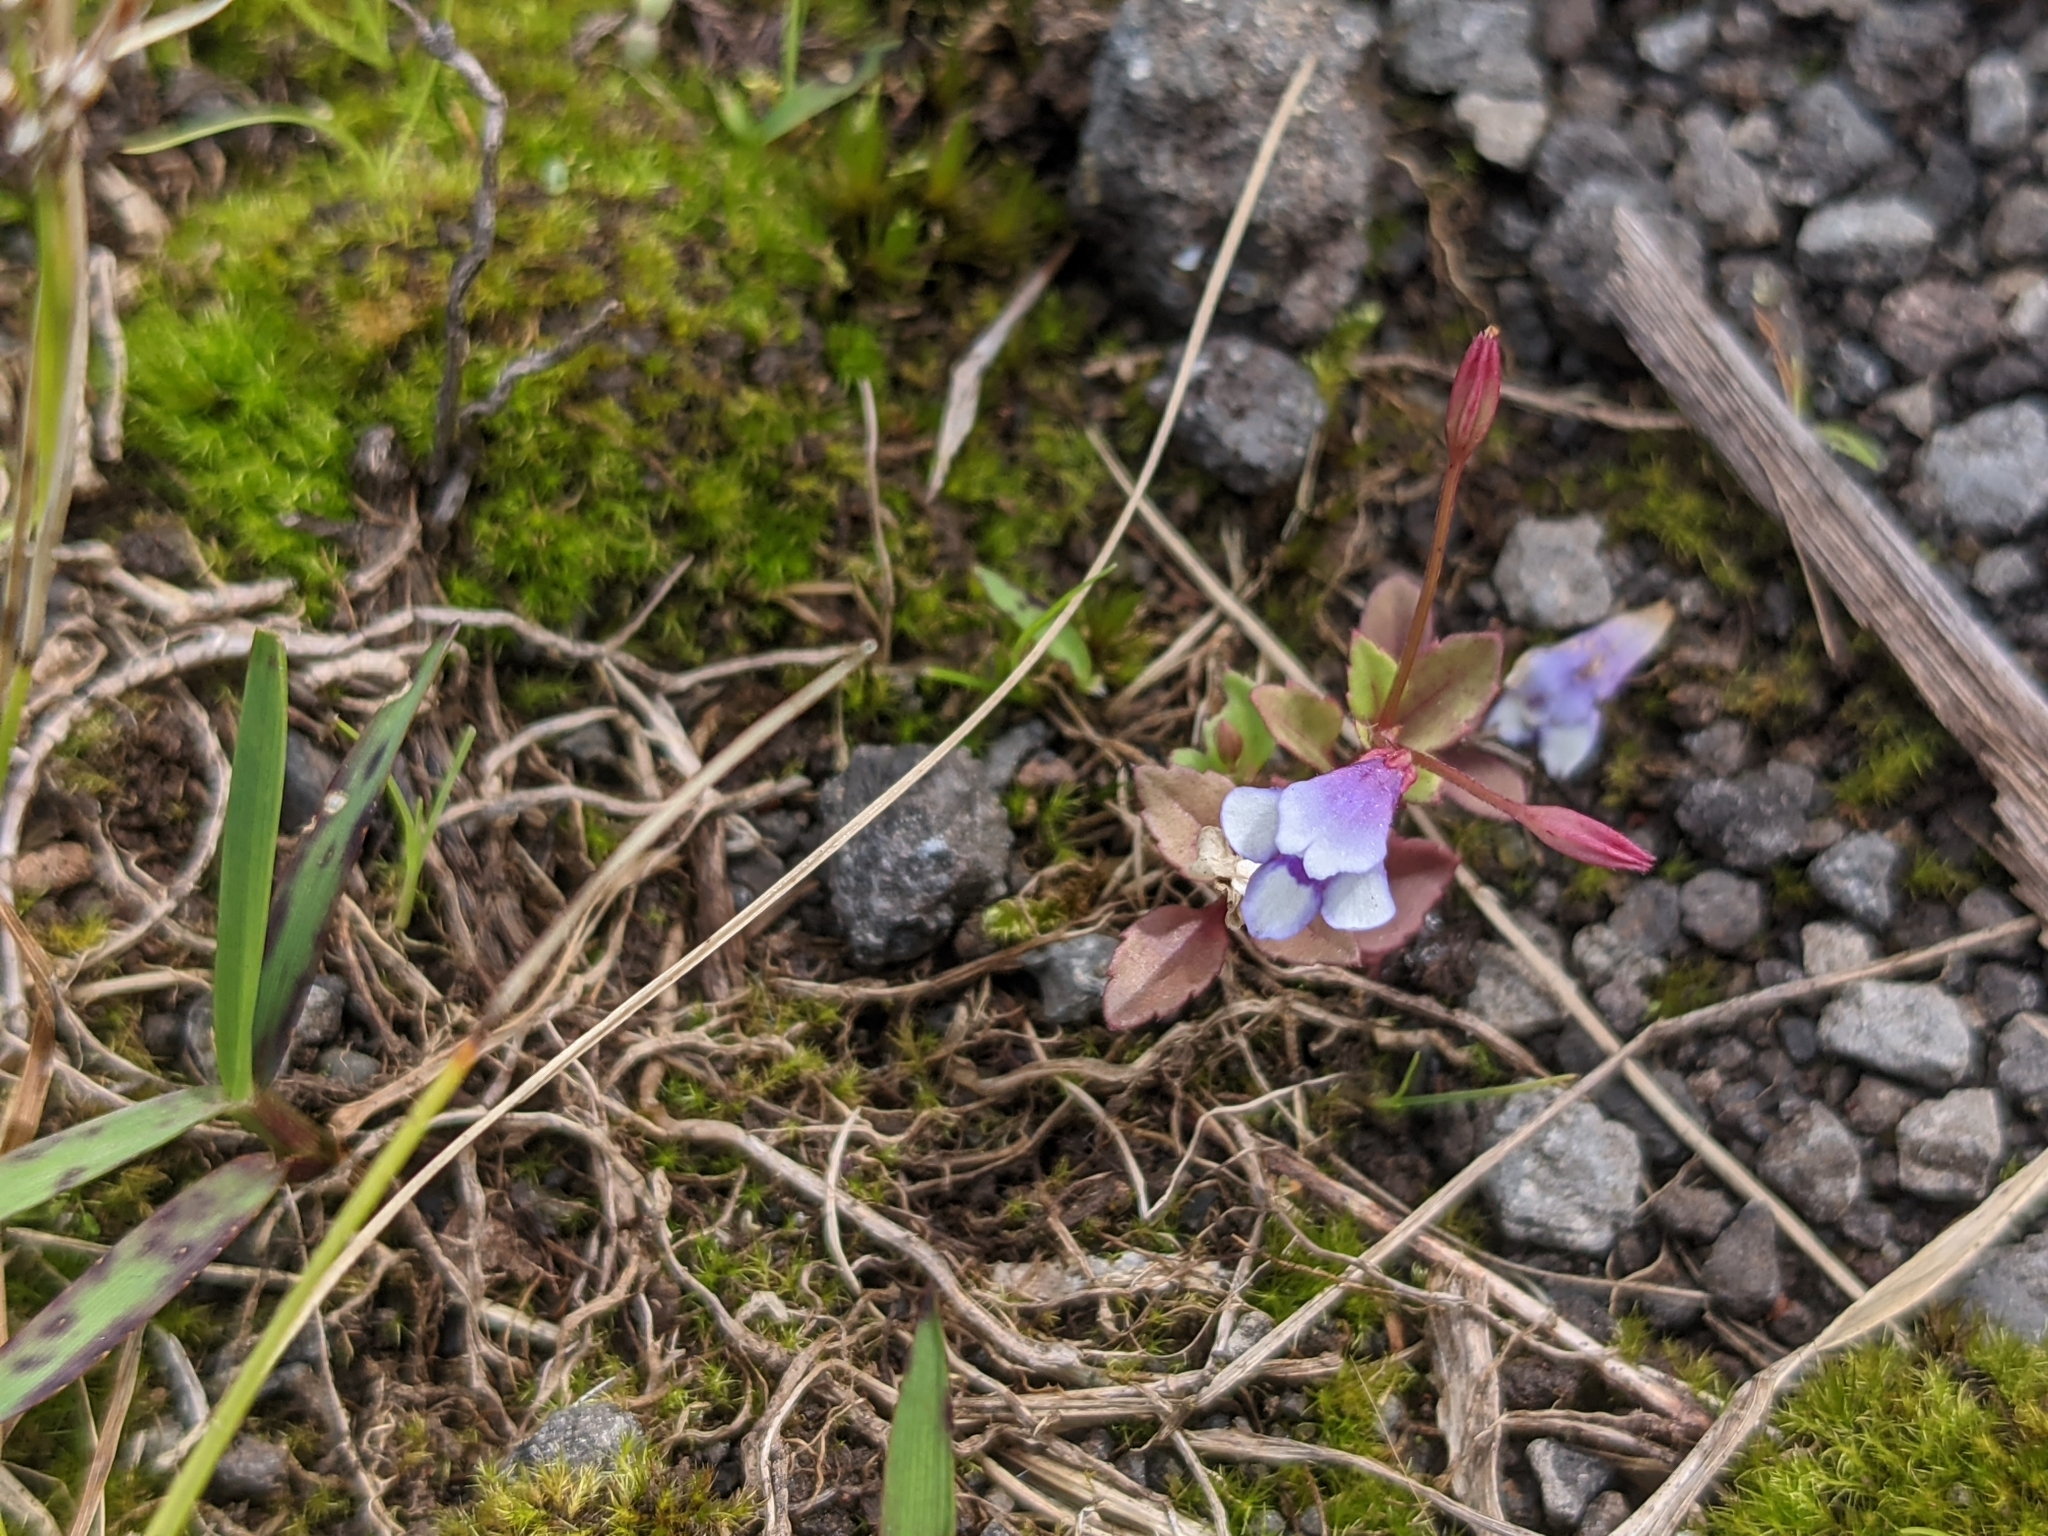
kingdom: Plantae
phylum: Tracheophyta
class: Magnoliopsida
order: Lamiales
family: Linderniaceae
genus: Torenia
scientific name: Torenia crustacea
